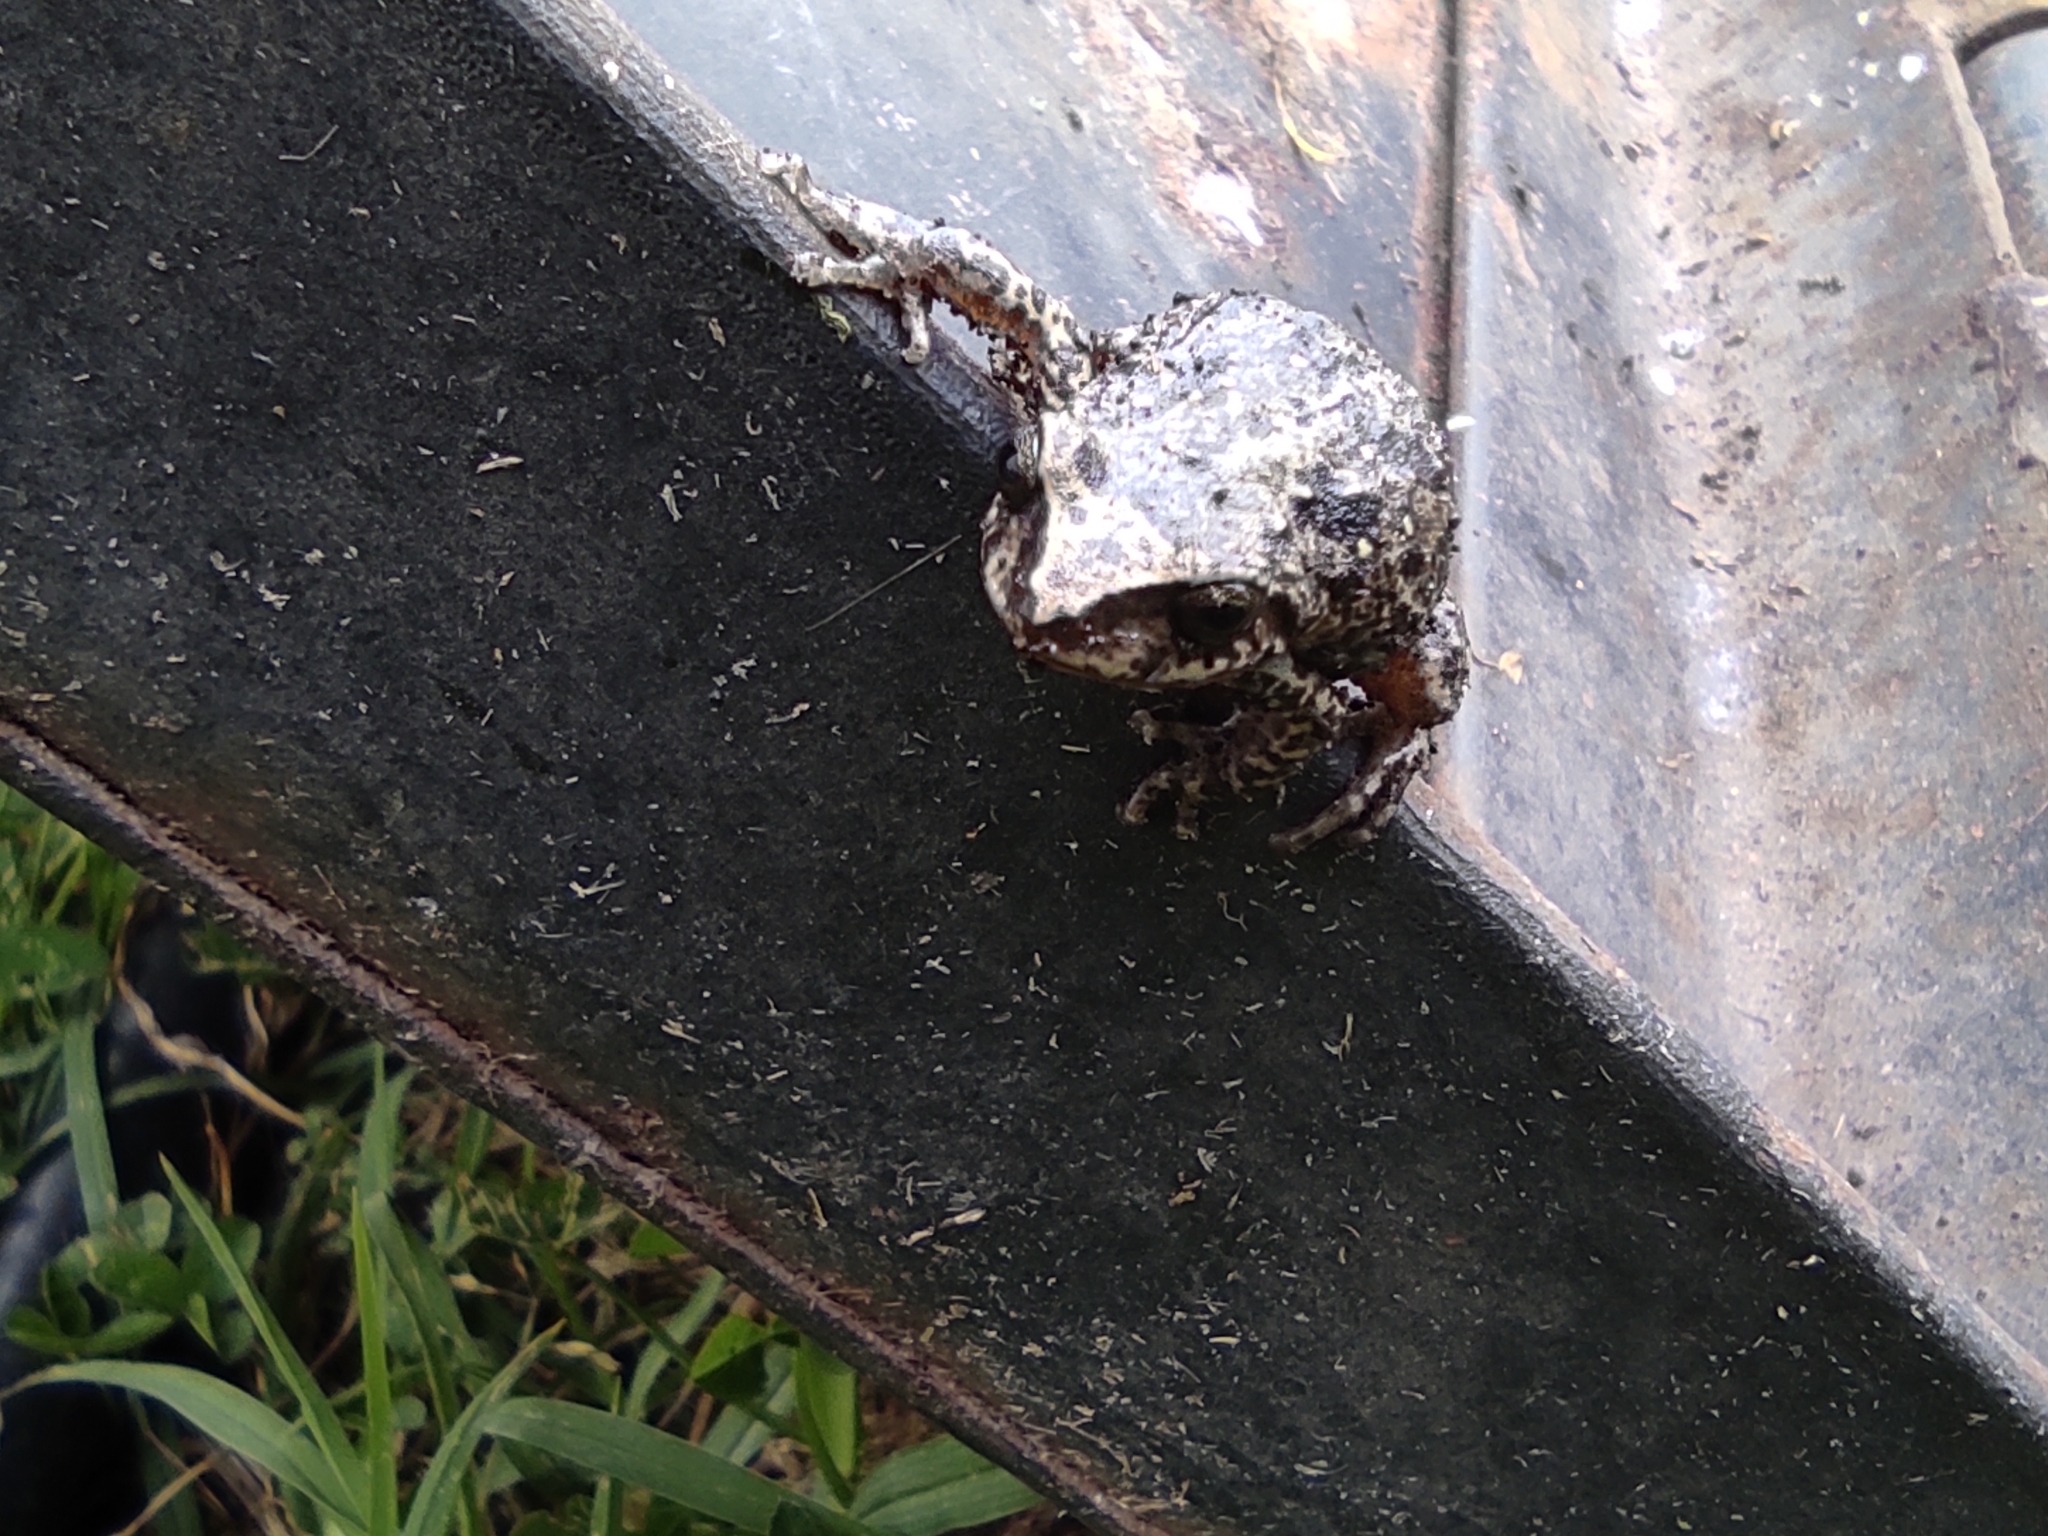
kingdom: Animalia
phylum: Chordata
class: Amphibia
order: Anura
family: Craugastoridae
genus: Pristimantis
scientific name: Pristimantis unistrigatus
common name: Striped robber frog
